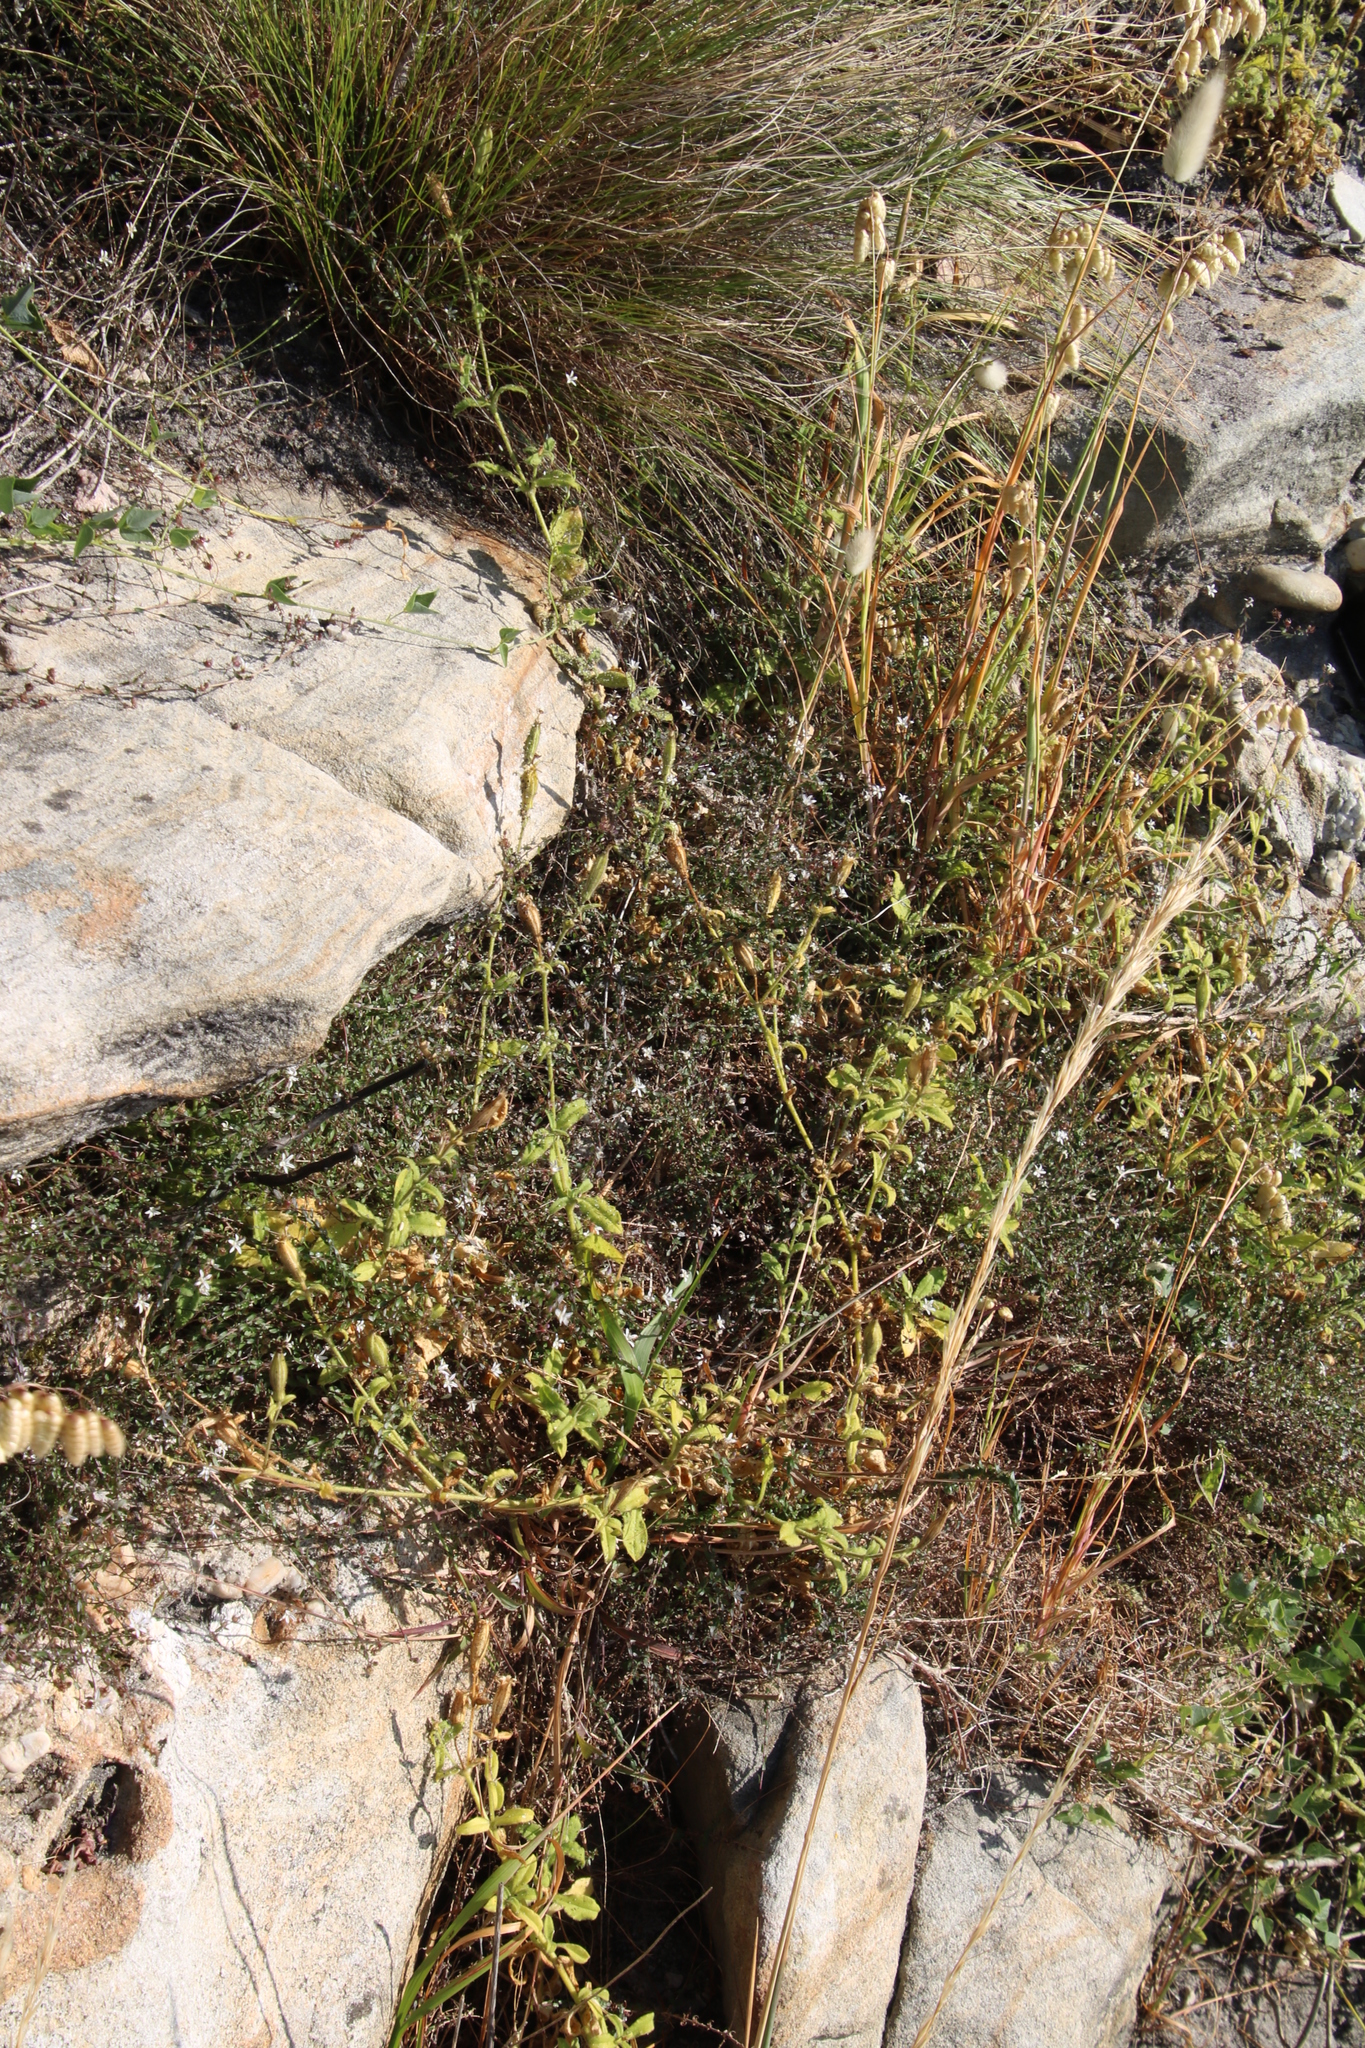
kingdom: Plantae
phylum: Tracheophyta
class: Magnoliopsida
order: Caryophyllales
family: Caryophyllaceae
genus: Silene
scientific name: Silene undulata
